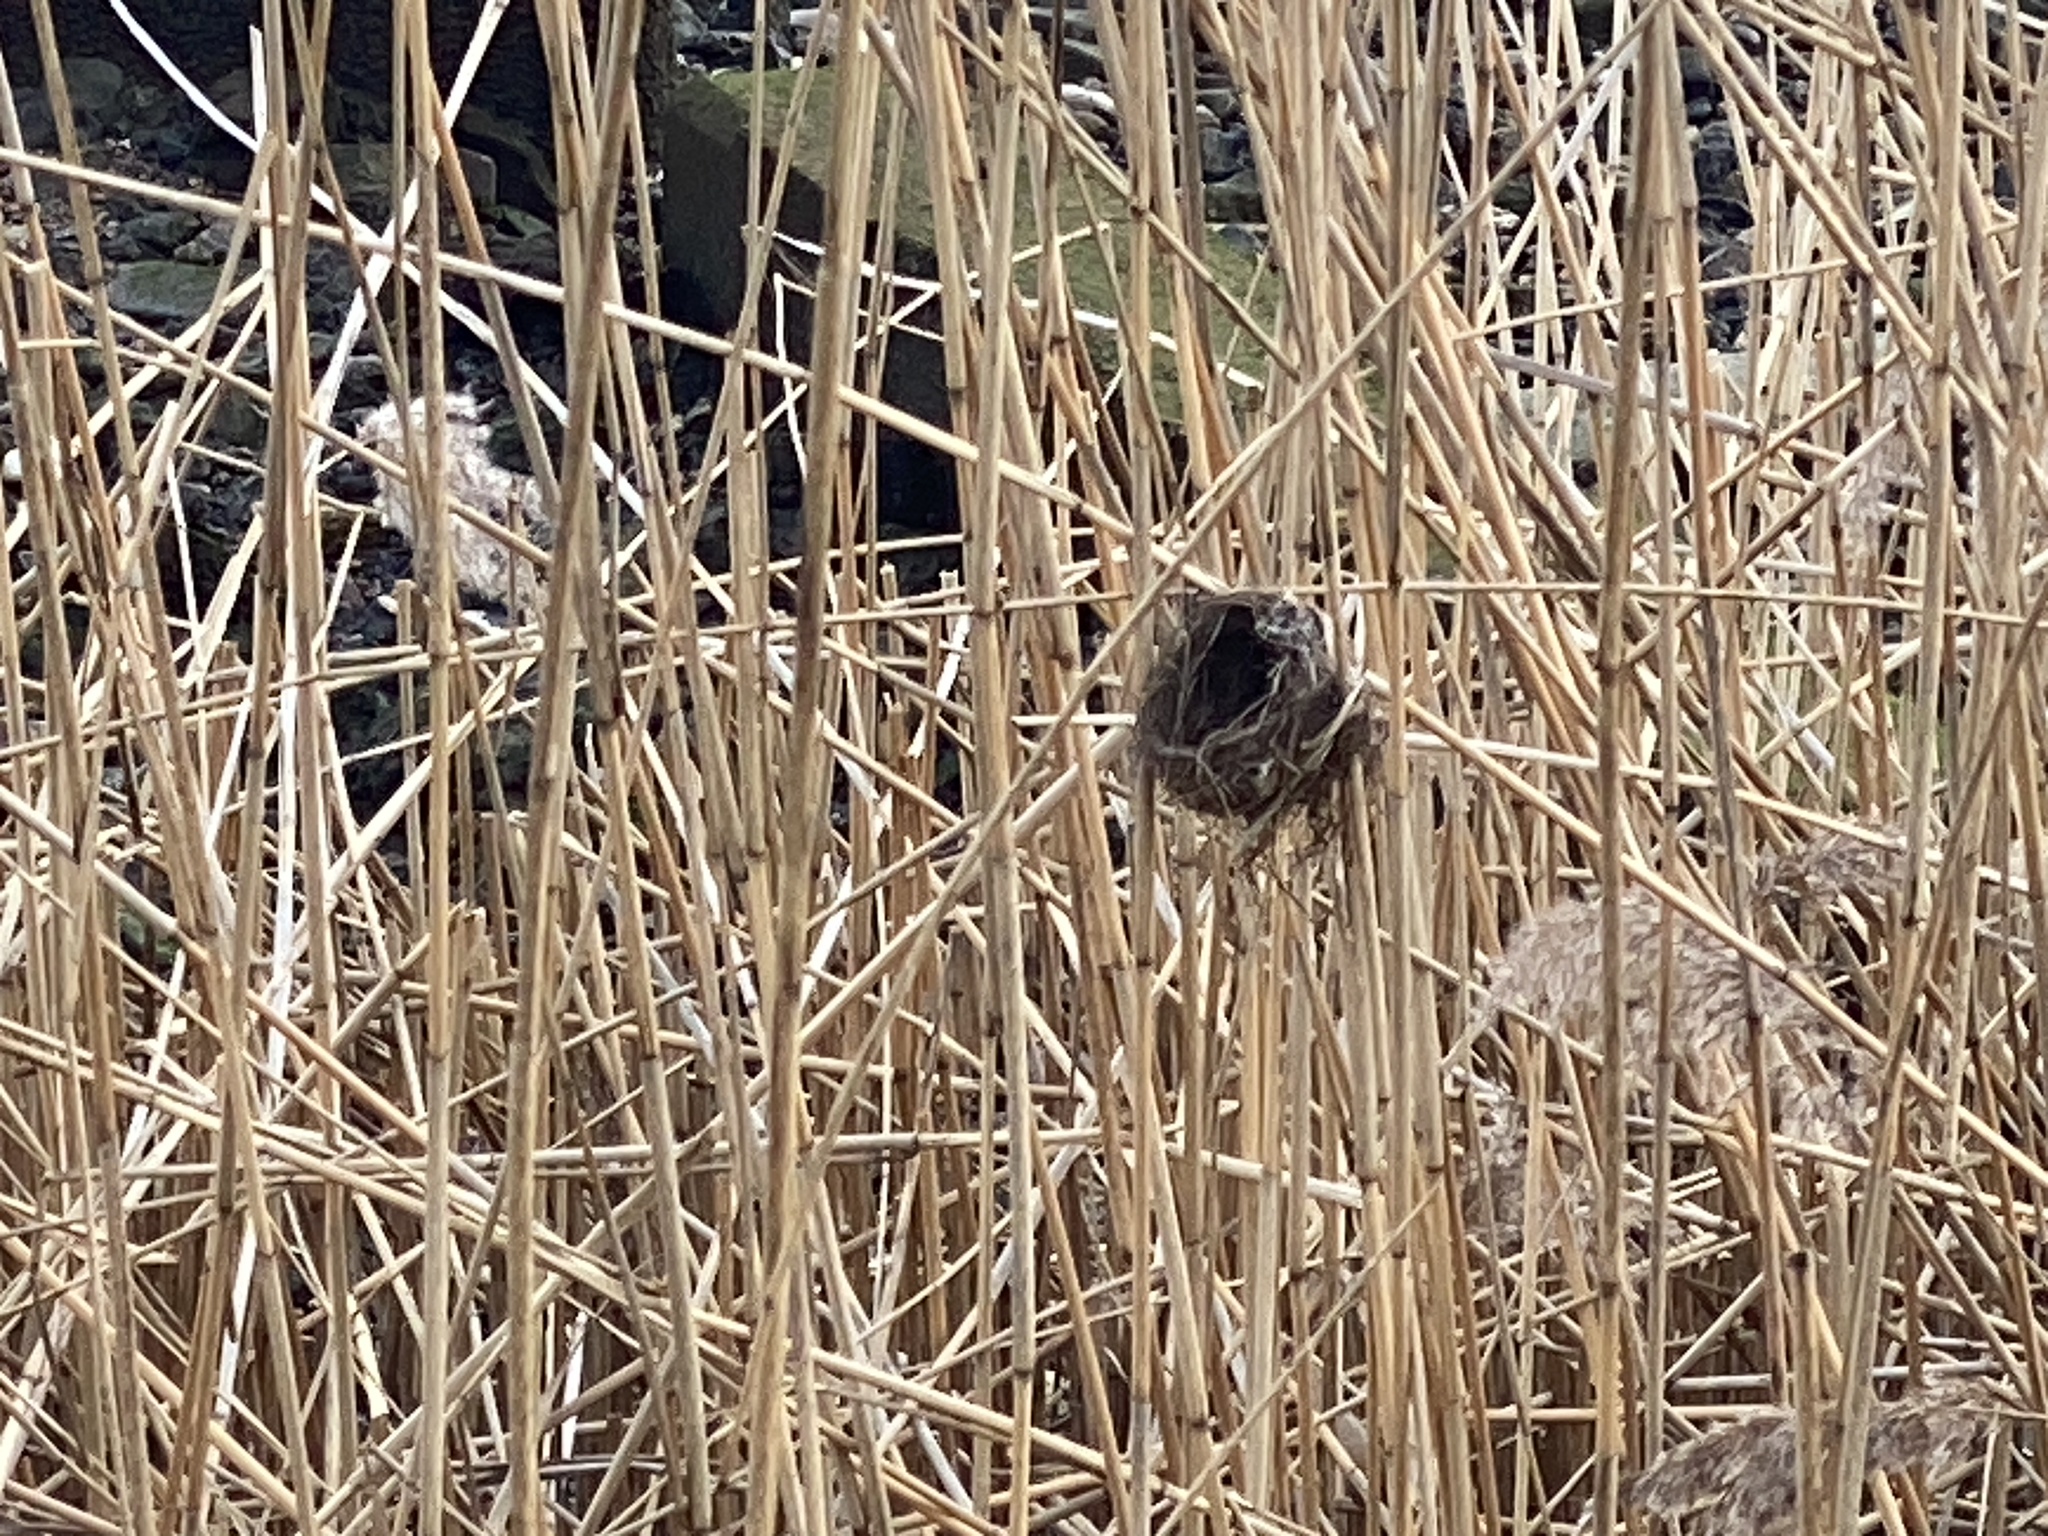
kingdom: Animalia
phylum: Chordata
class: Aves
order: Passeriformes
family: Acrocephalidae
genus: Acrocephalus
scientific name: Acrocephalus scirpaceus
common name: Eurasian reed warbler
